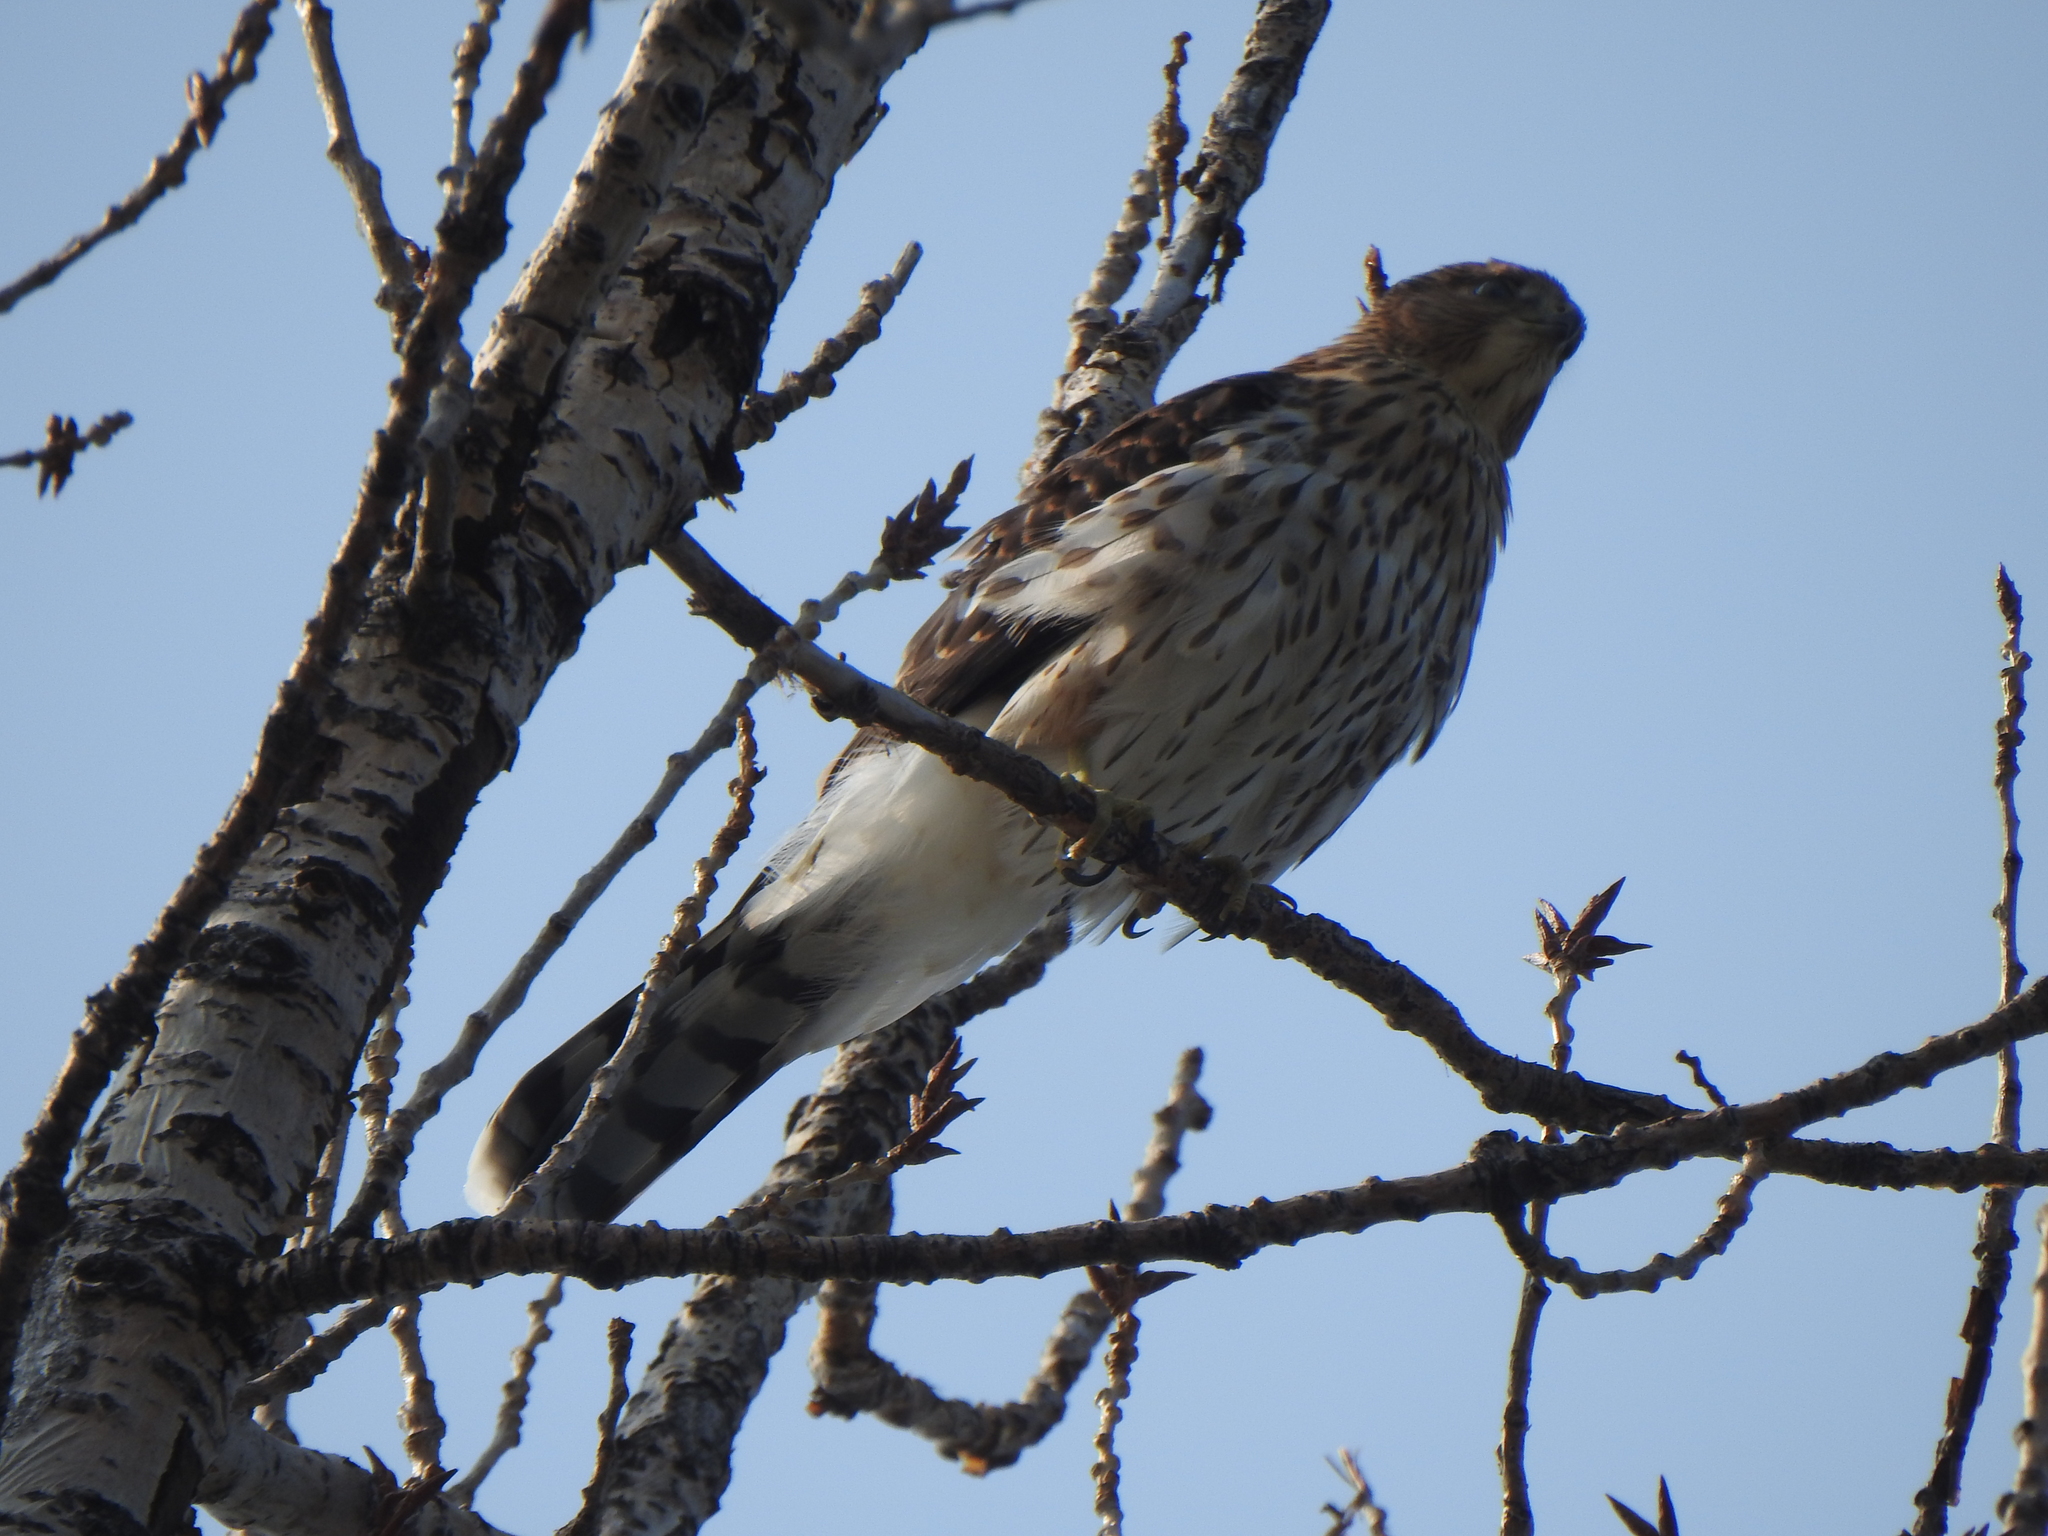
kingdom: Animalia
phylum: Chordata
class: Aves
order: Accipitriformes
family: Accipitridae
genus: Accipiter
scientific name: Accipiter cooperii
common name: Cooper's hawk
